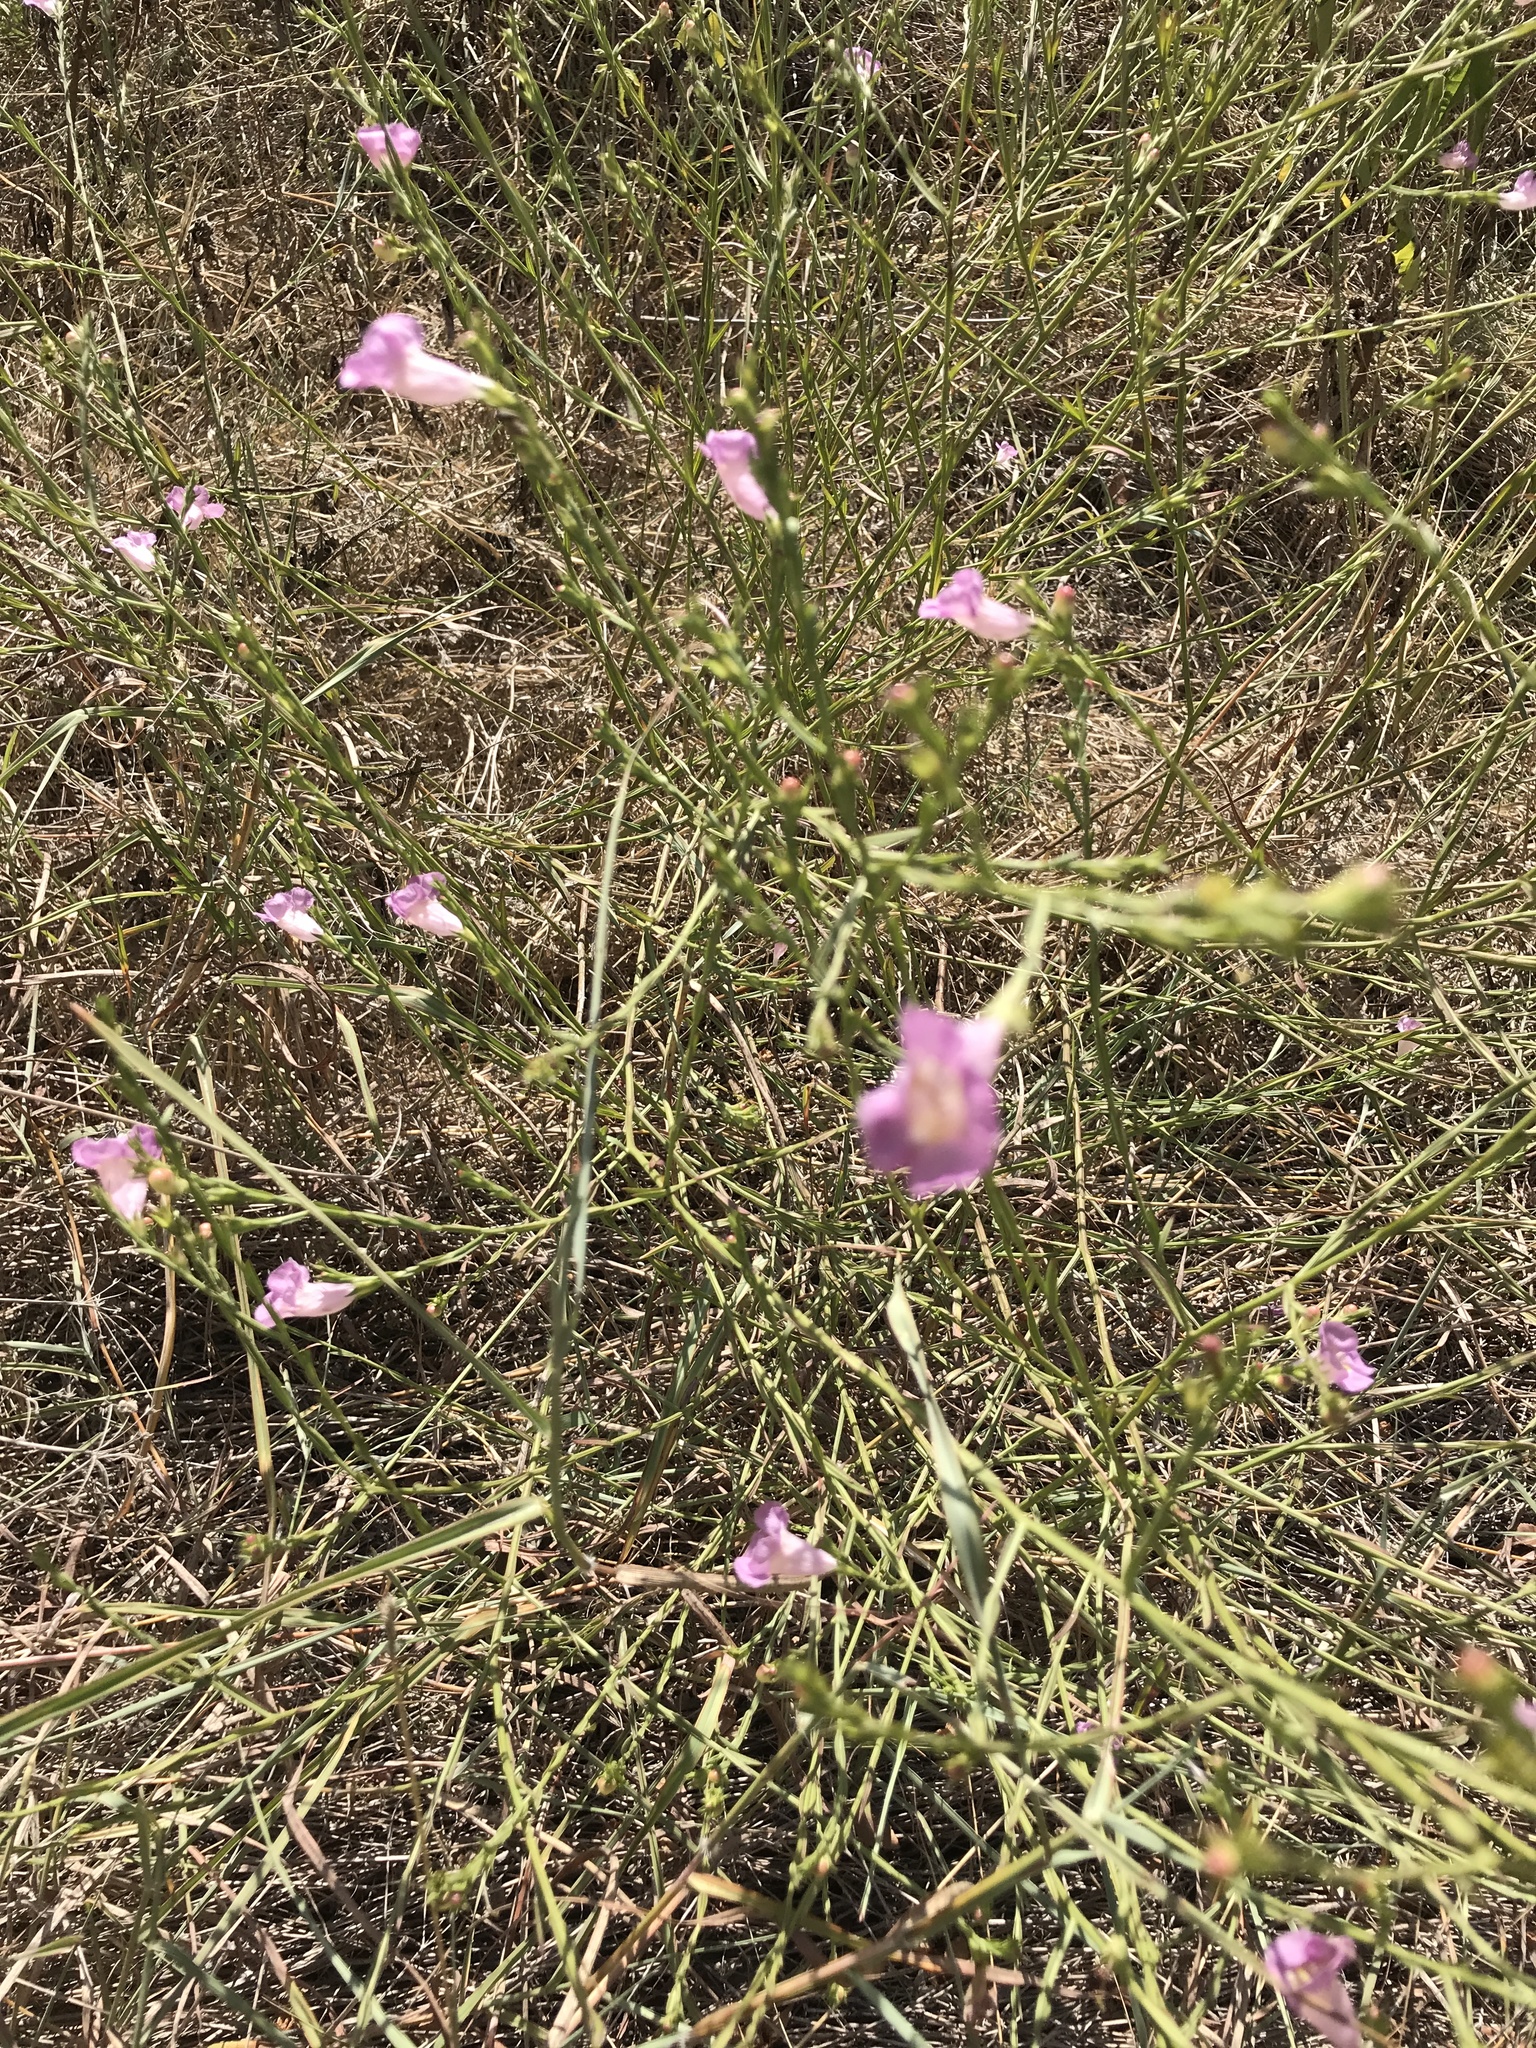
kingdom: Plantae
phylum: Tracheophyta
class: Magnoliopsida
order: Lamiales
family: Orobanchaceae
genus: Agalinis
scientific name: Agalinis heterophylla
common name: Prairie agalinis
